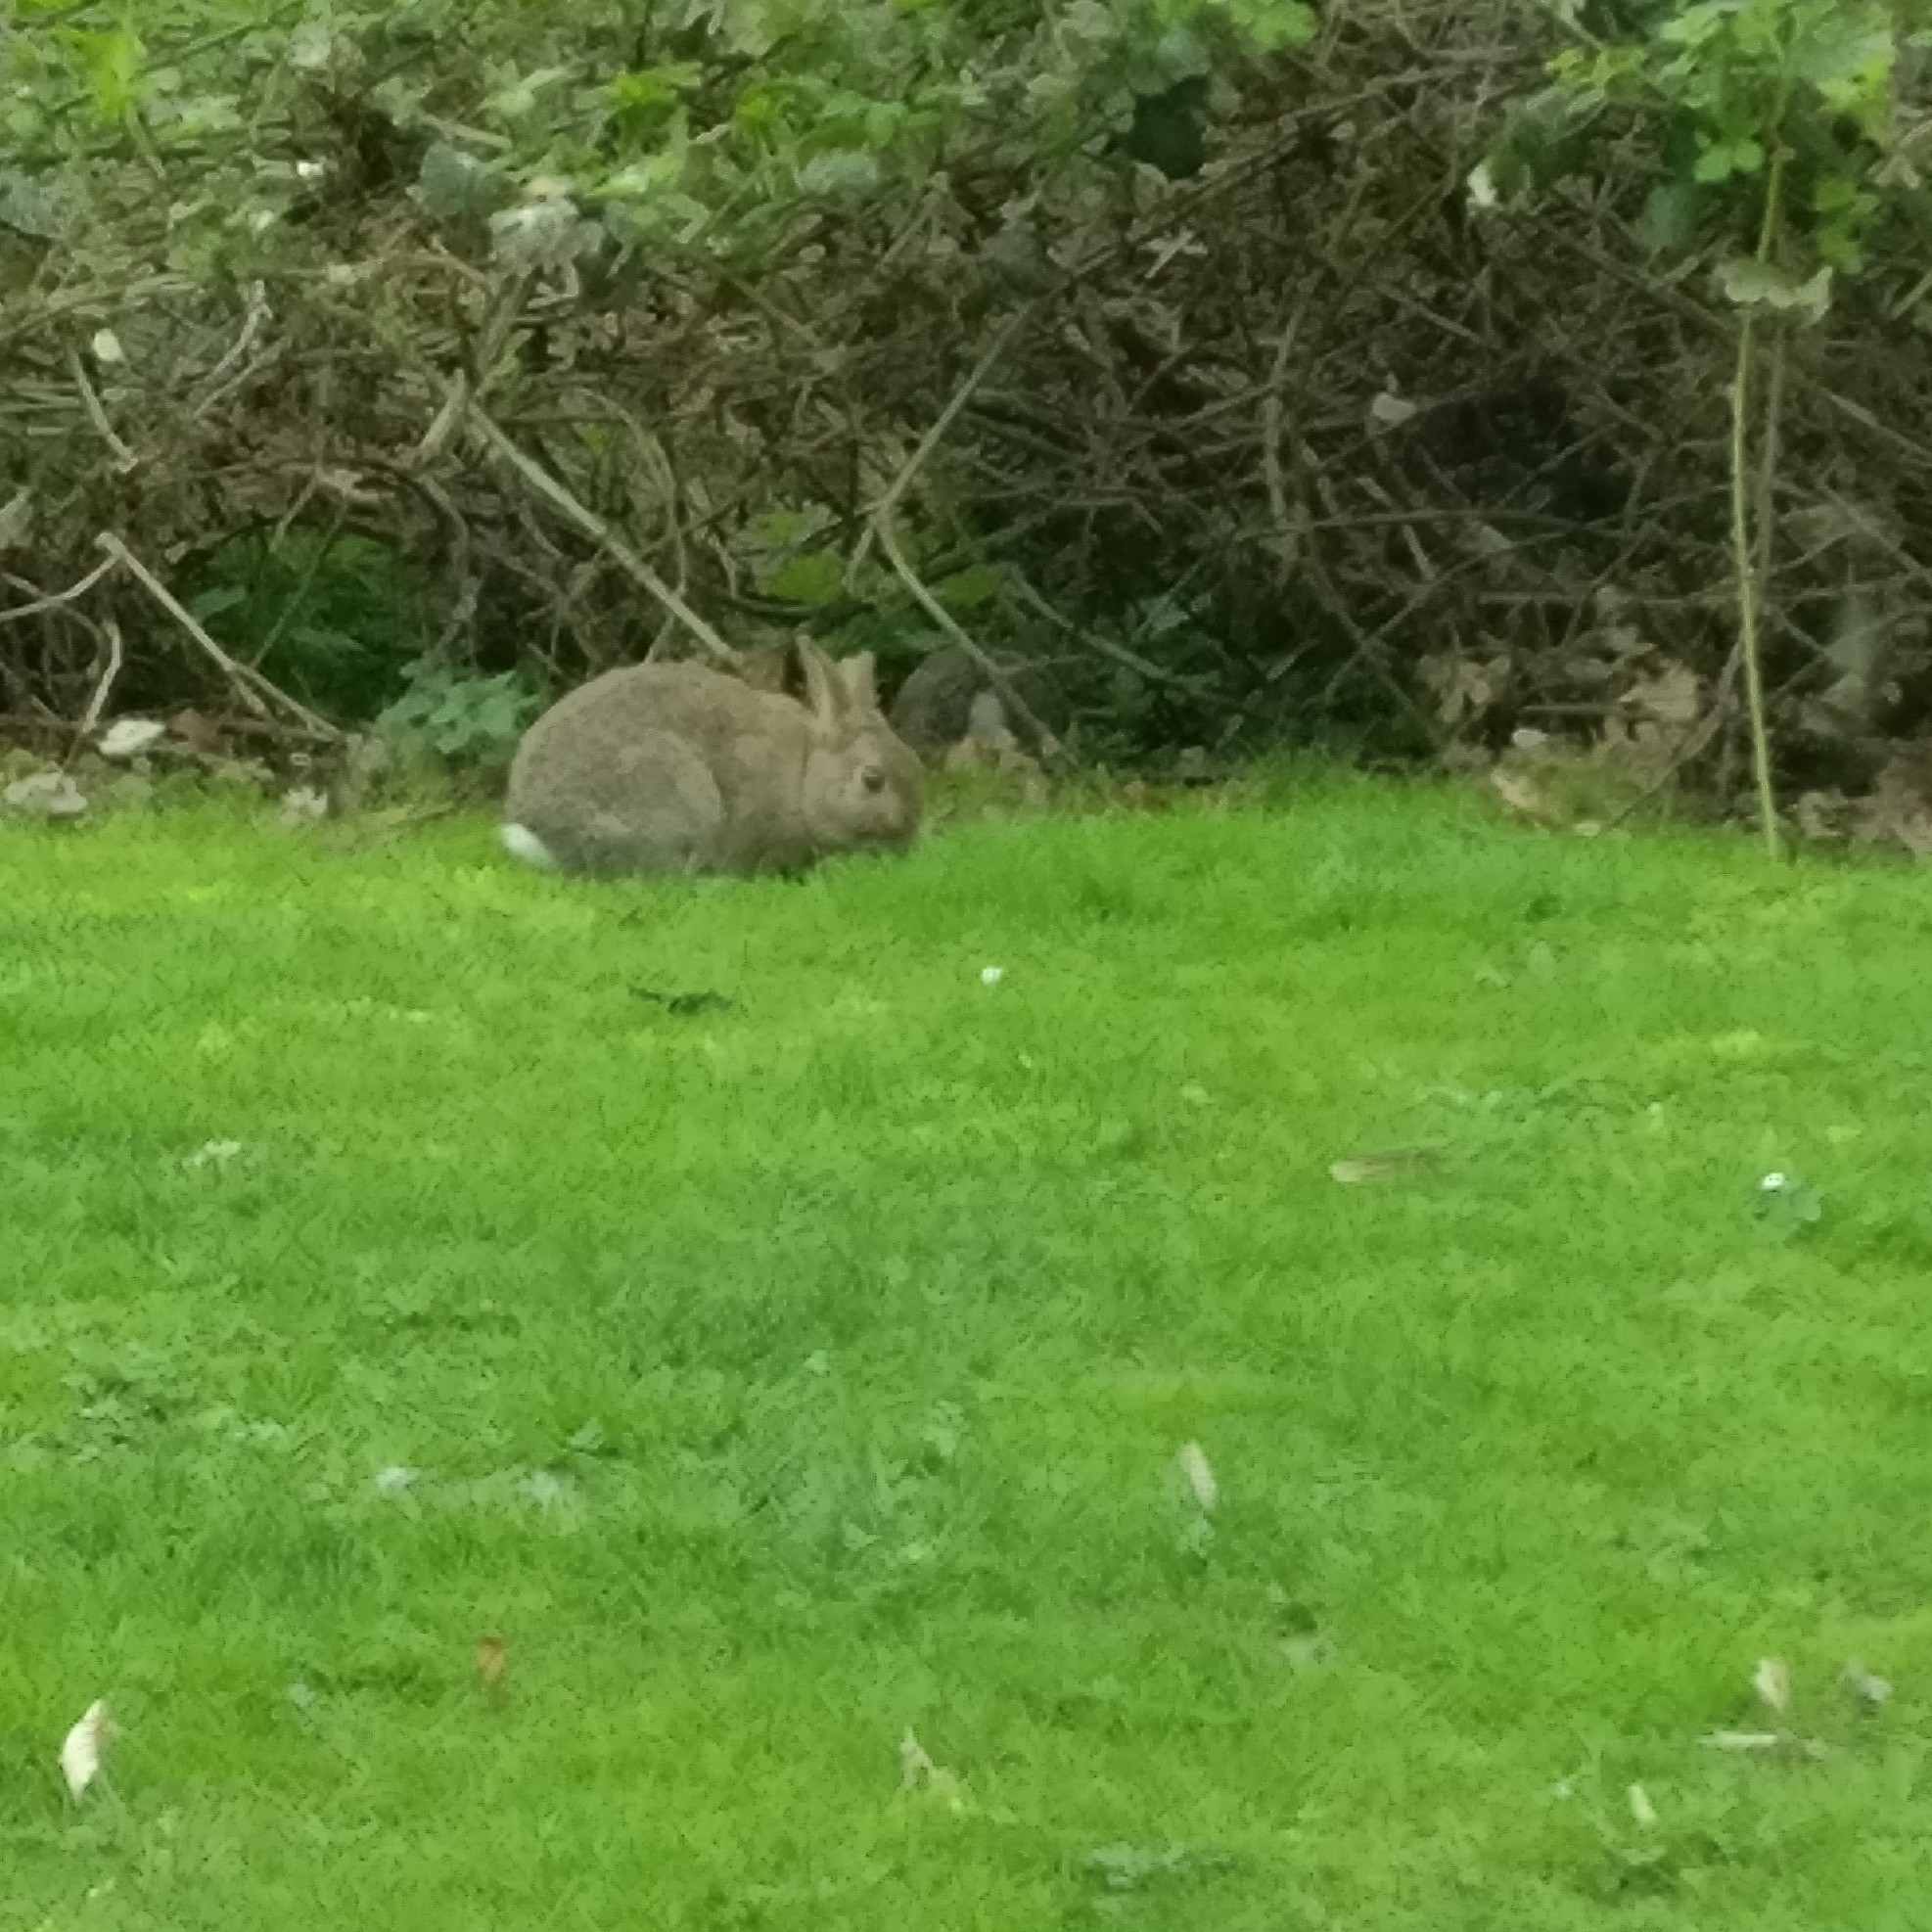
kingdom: Animalia
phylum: Chordata
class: Mammalia
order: Lagomorpha
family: Leporidae
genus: Oryctolagus
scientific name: Oryctolagus cuniculus
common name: European rabbit
